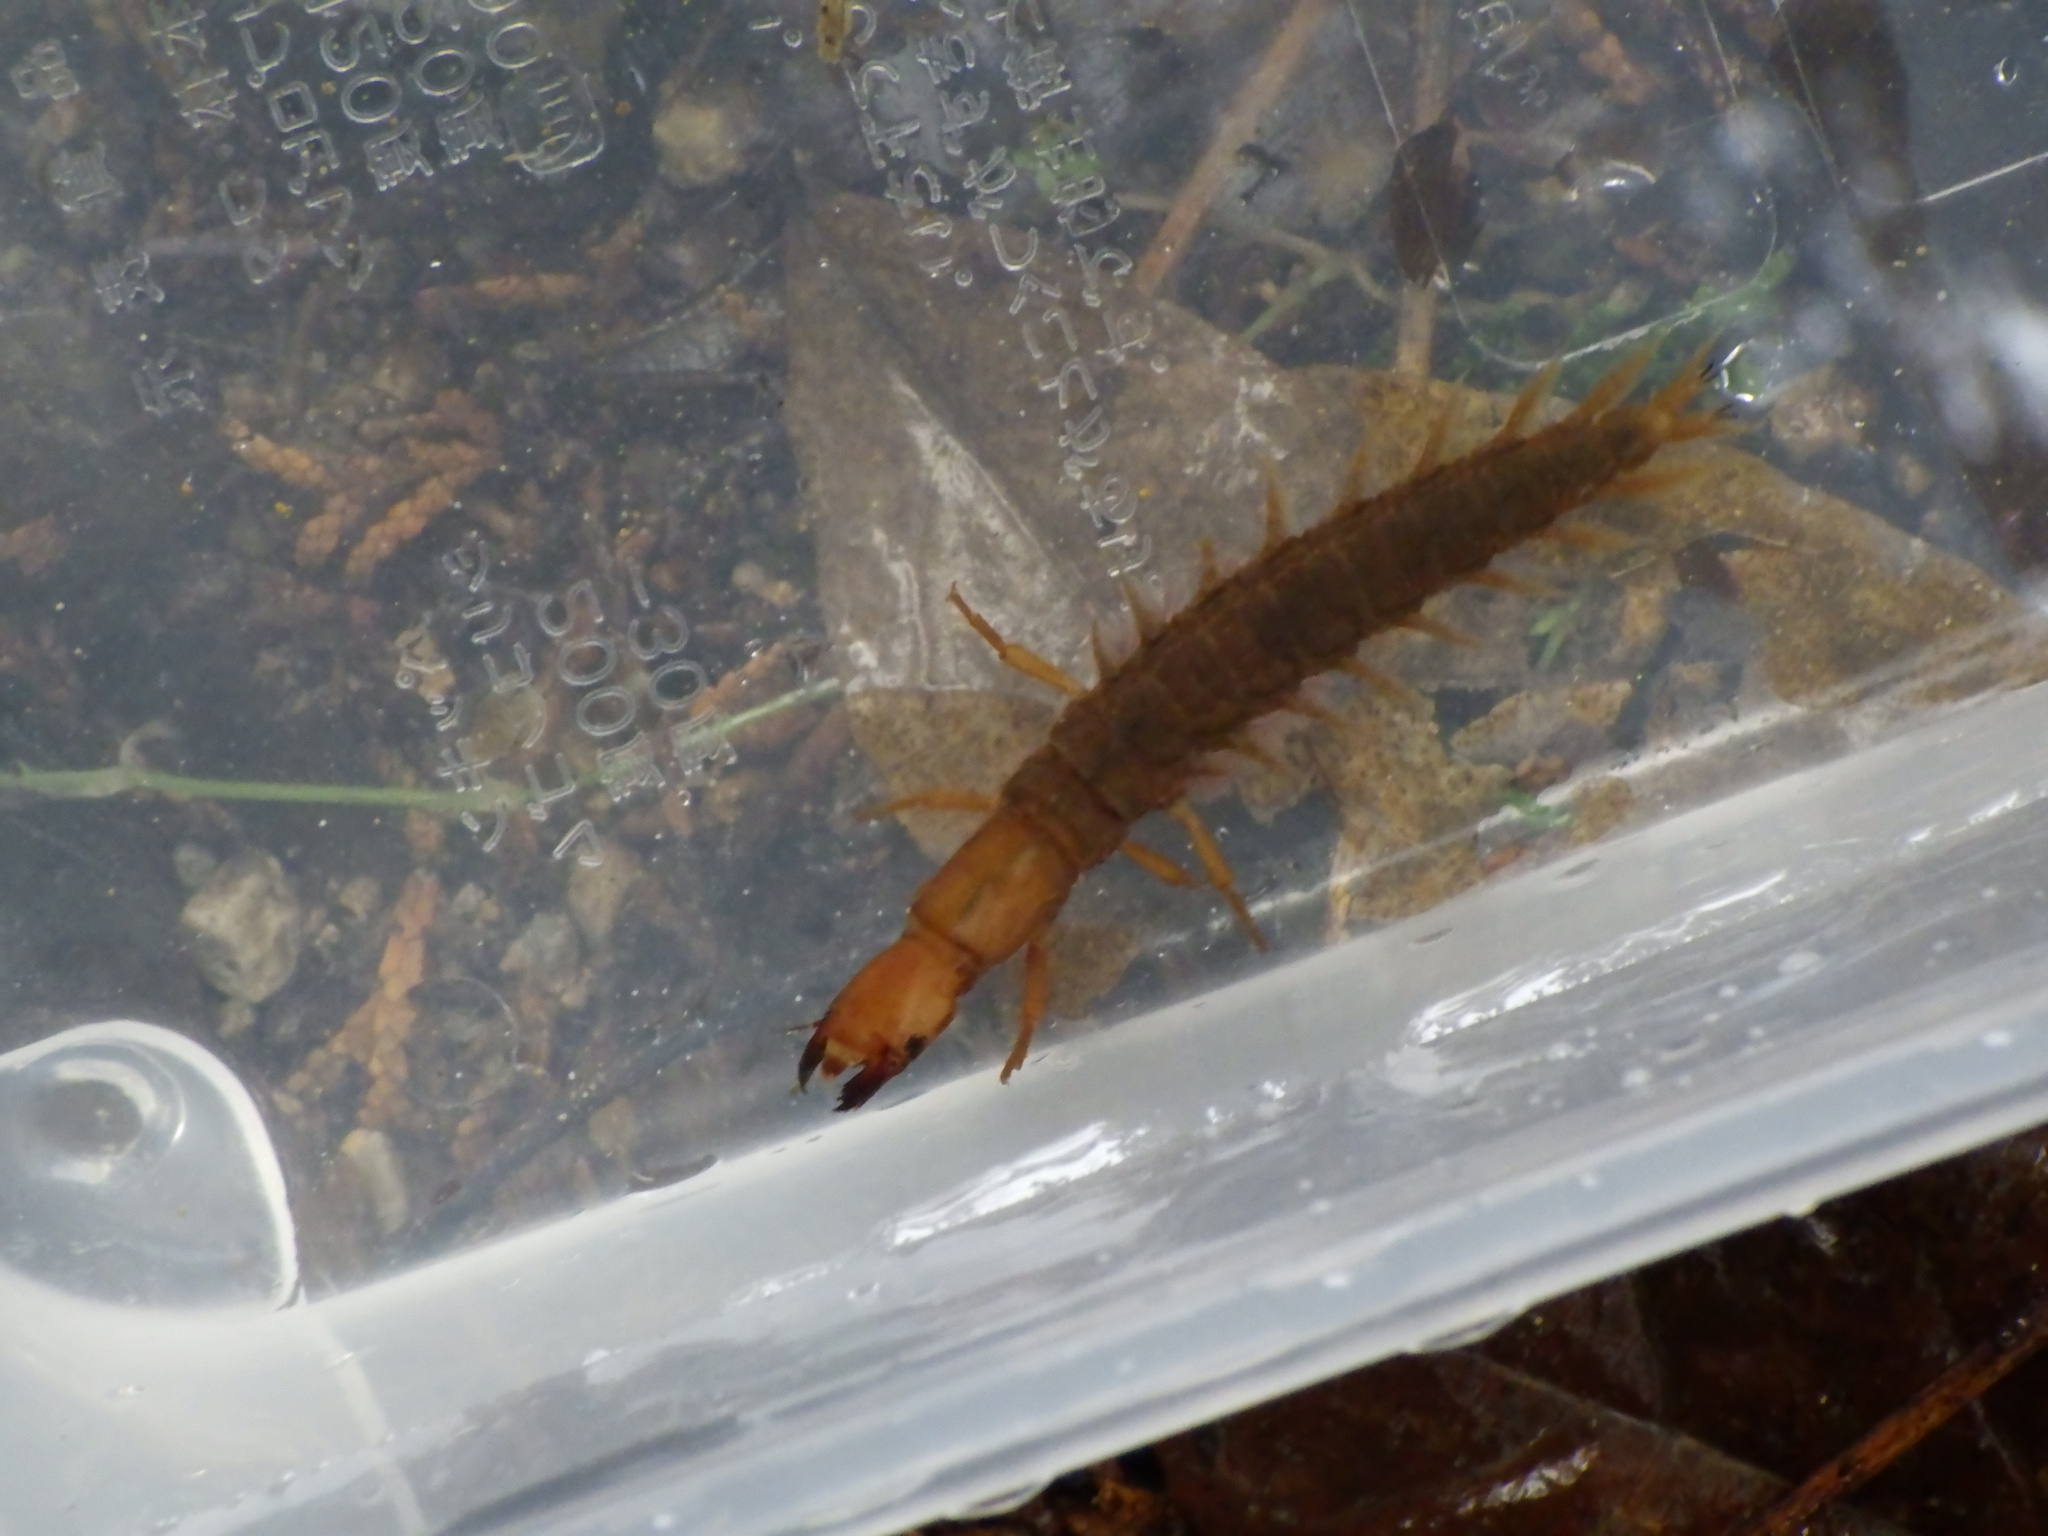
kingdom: Animalia
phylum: Arthropoda
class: Insecta
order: Megaloptera
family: Corydalidae
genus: Protohermes
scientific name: Protohermes grandis
